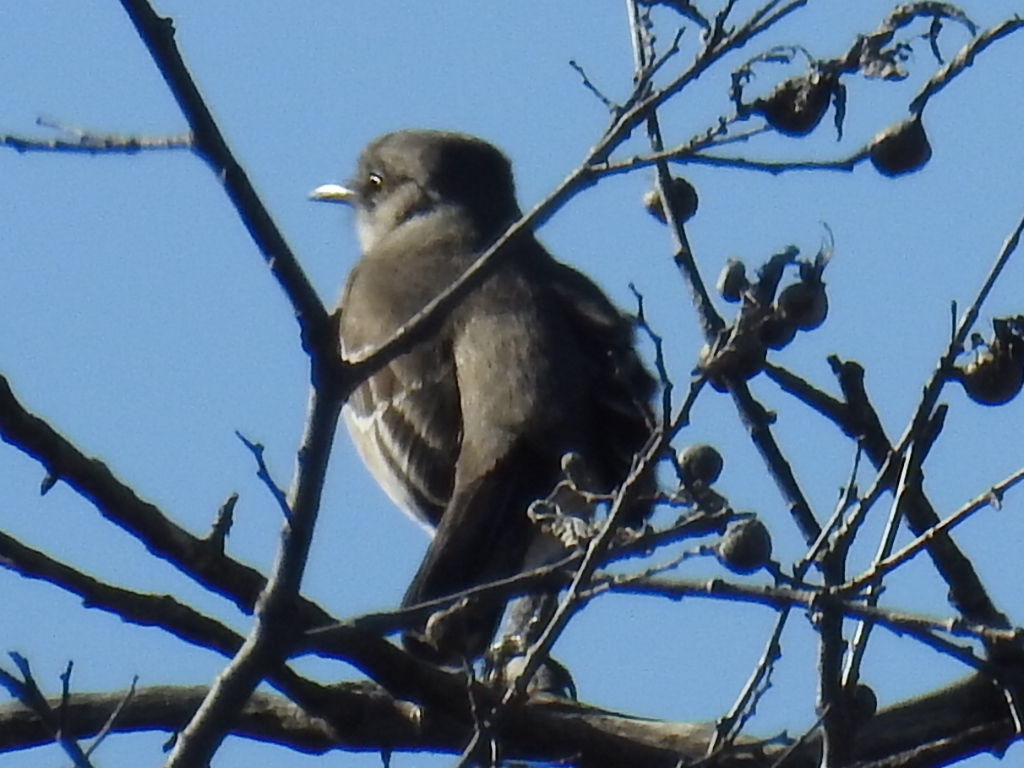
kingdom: Animalia
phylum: Chordata
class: Aves
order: Passeriformes
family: Mimidae
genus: Mimus
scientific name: Mimus polyglottos
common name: Northern mockingbird
